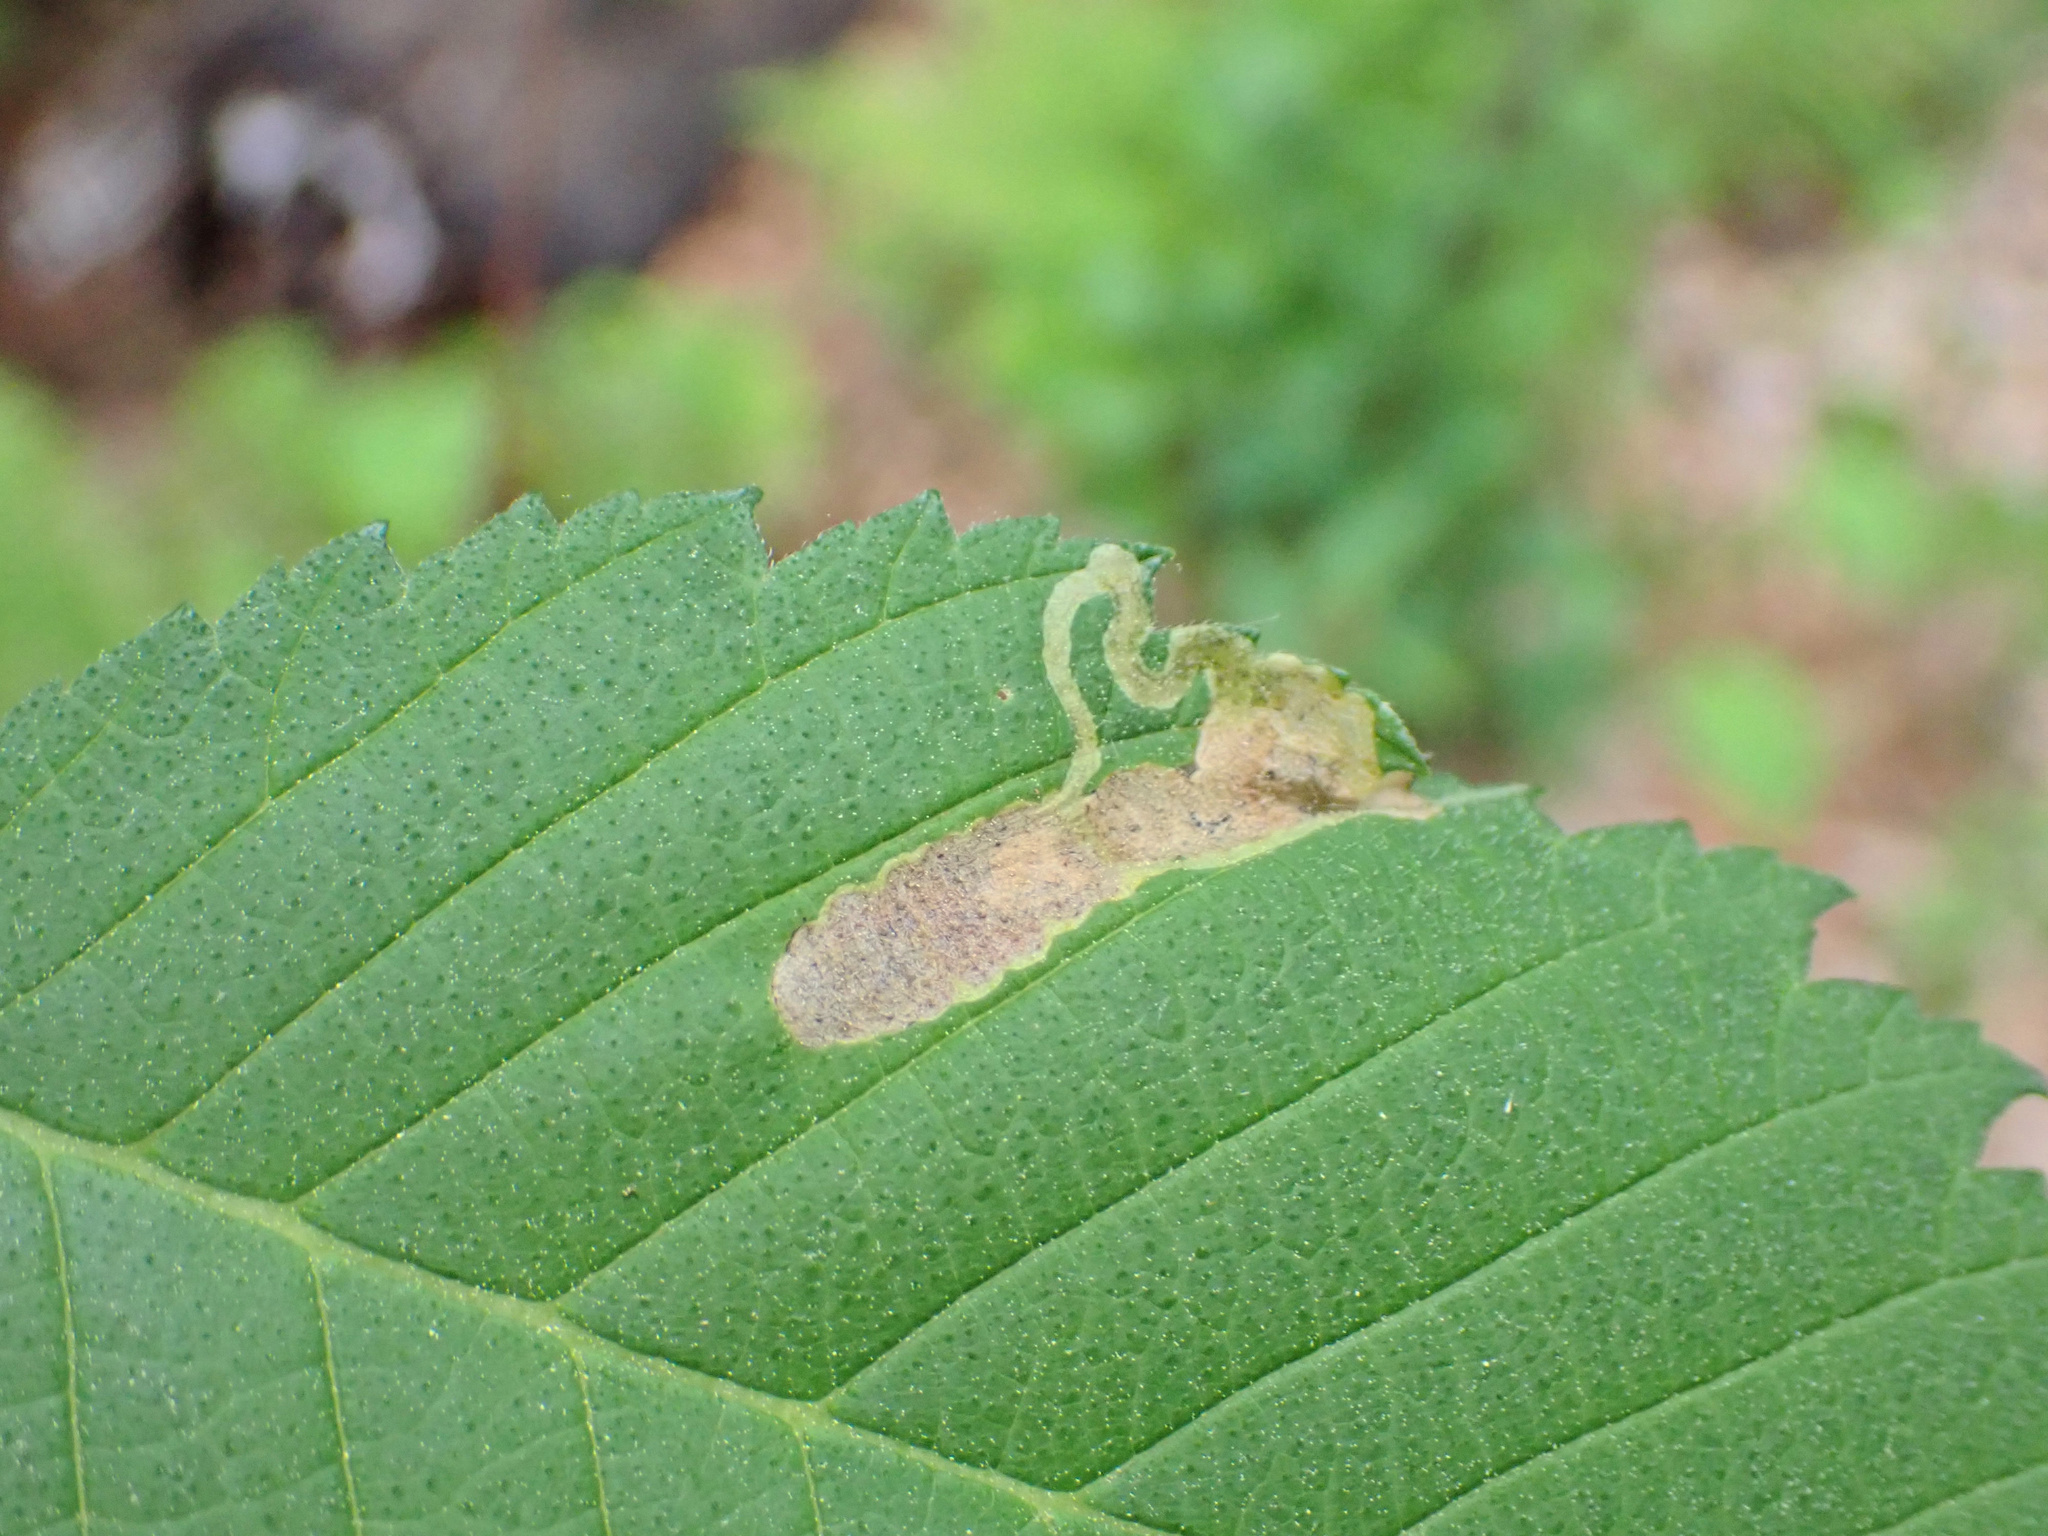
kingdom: Animalia
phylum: Arthropoda
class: Insecta
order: Diptera
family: Agromyzidae
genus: Agromyza
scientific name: Agromyza aristata
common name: Elm agromyzid leafminer
